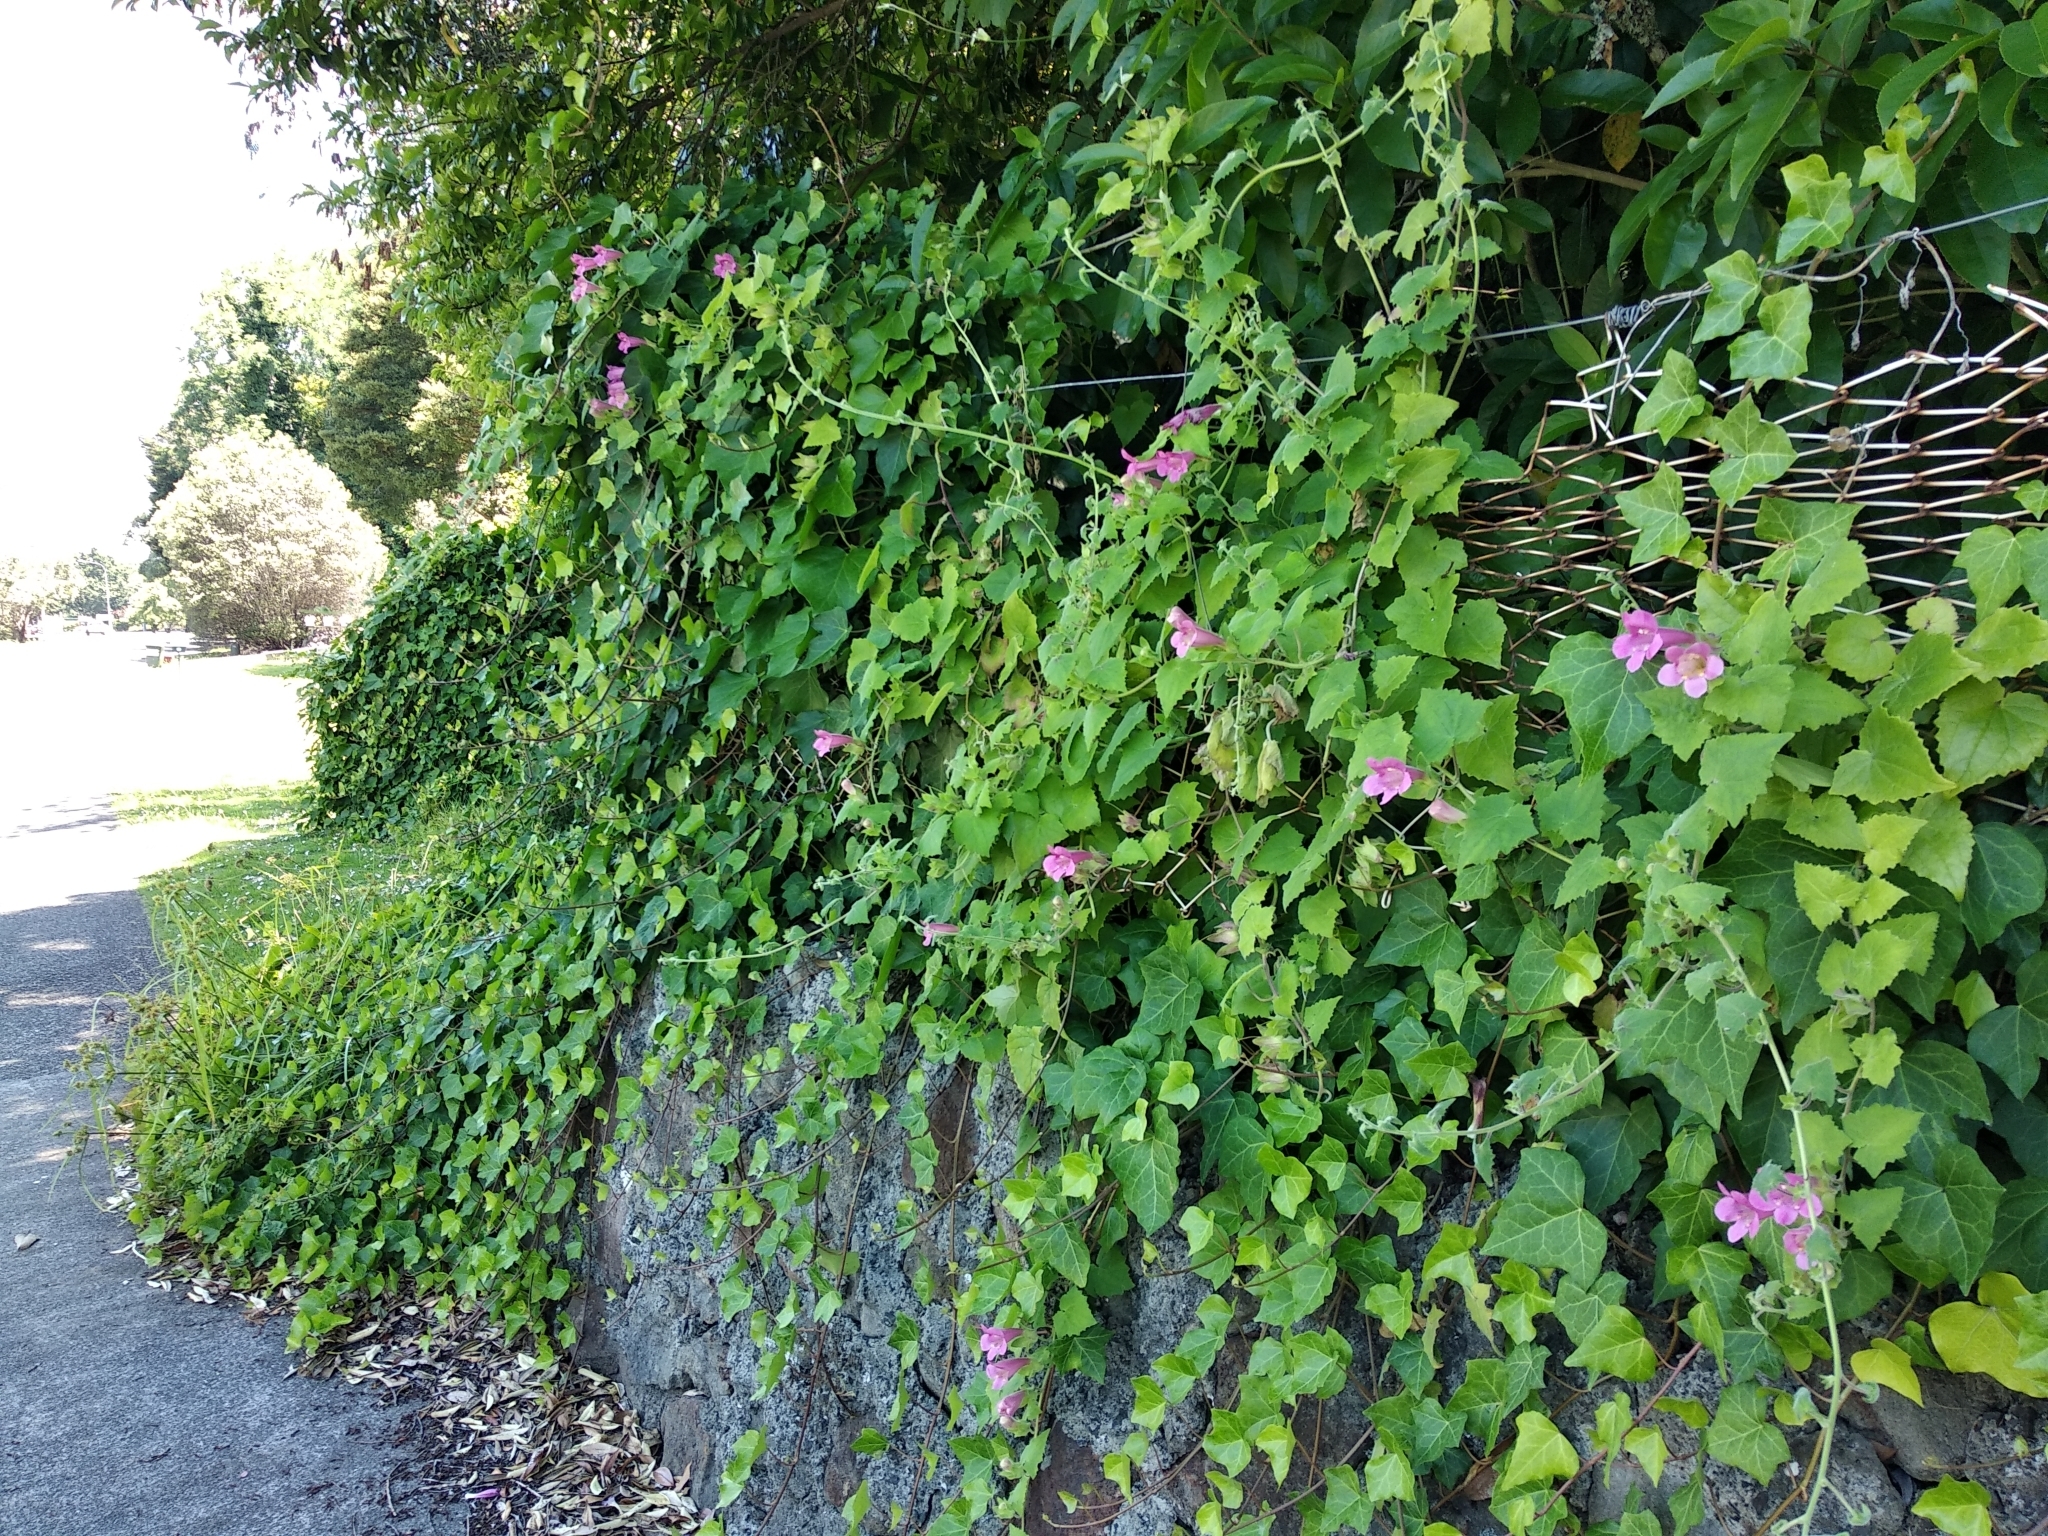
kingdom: Plantae
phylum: Tracheophyta
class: Magnoliopsida
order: Lamiales
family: Plantaginaceae
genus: Lophospermum
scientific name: Lophospermum erubescens
